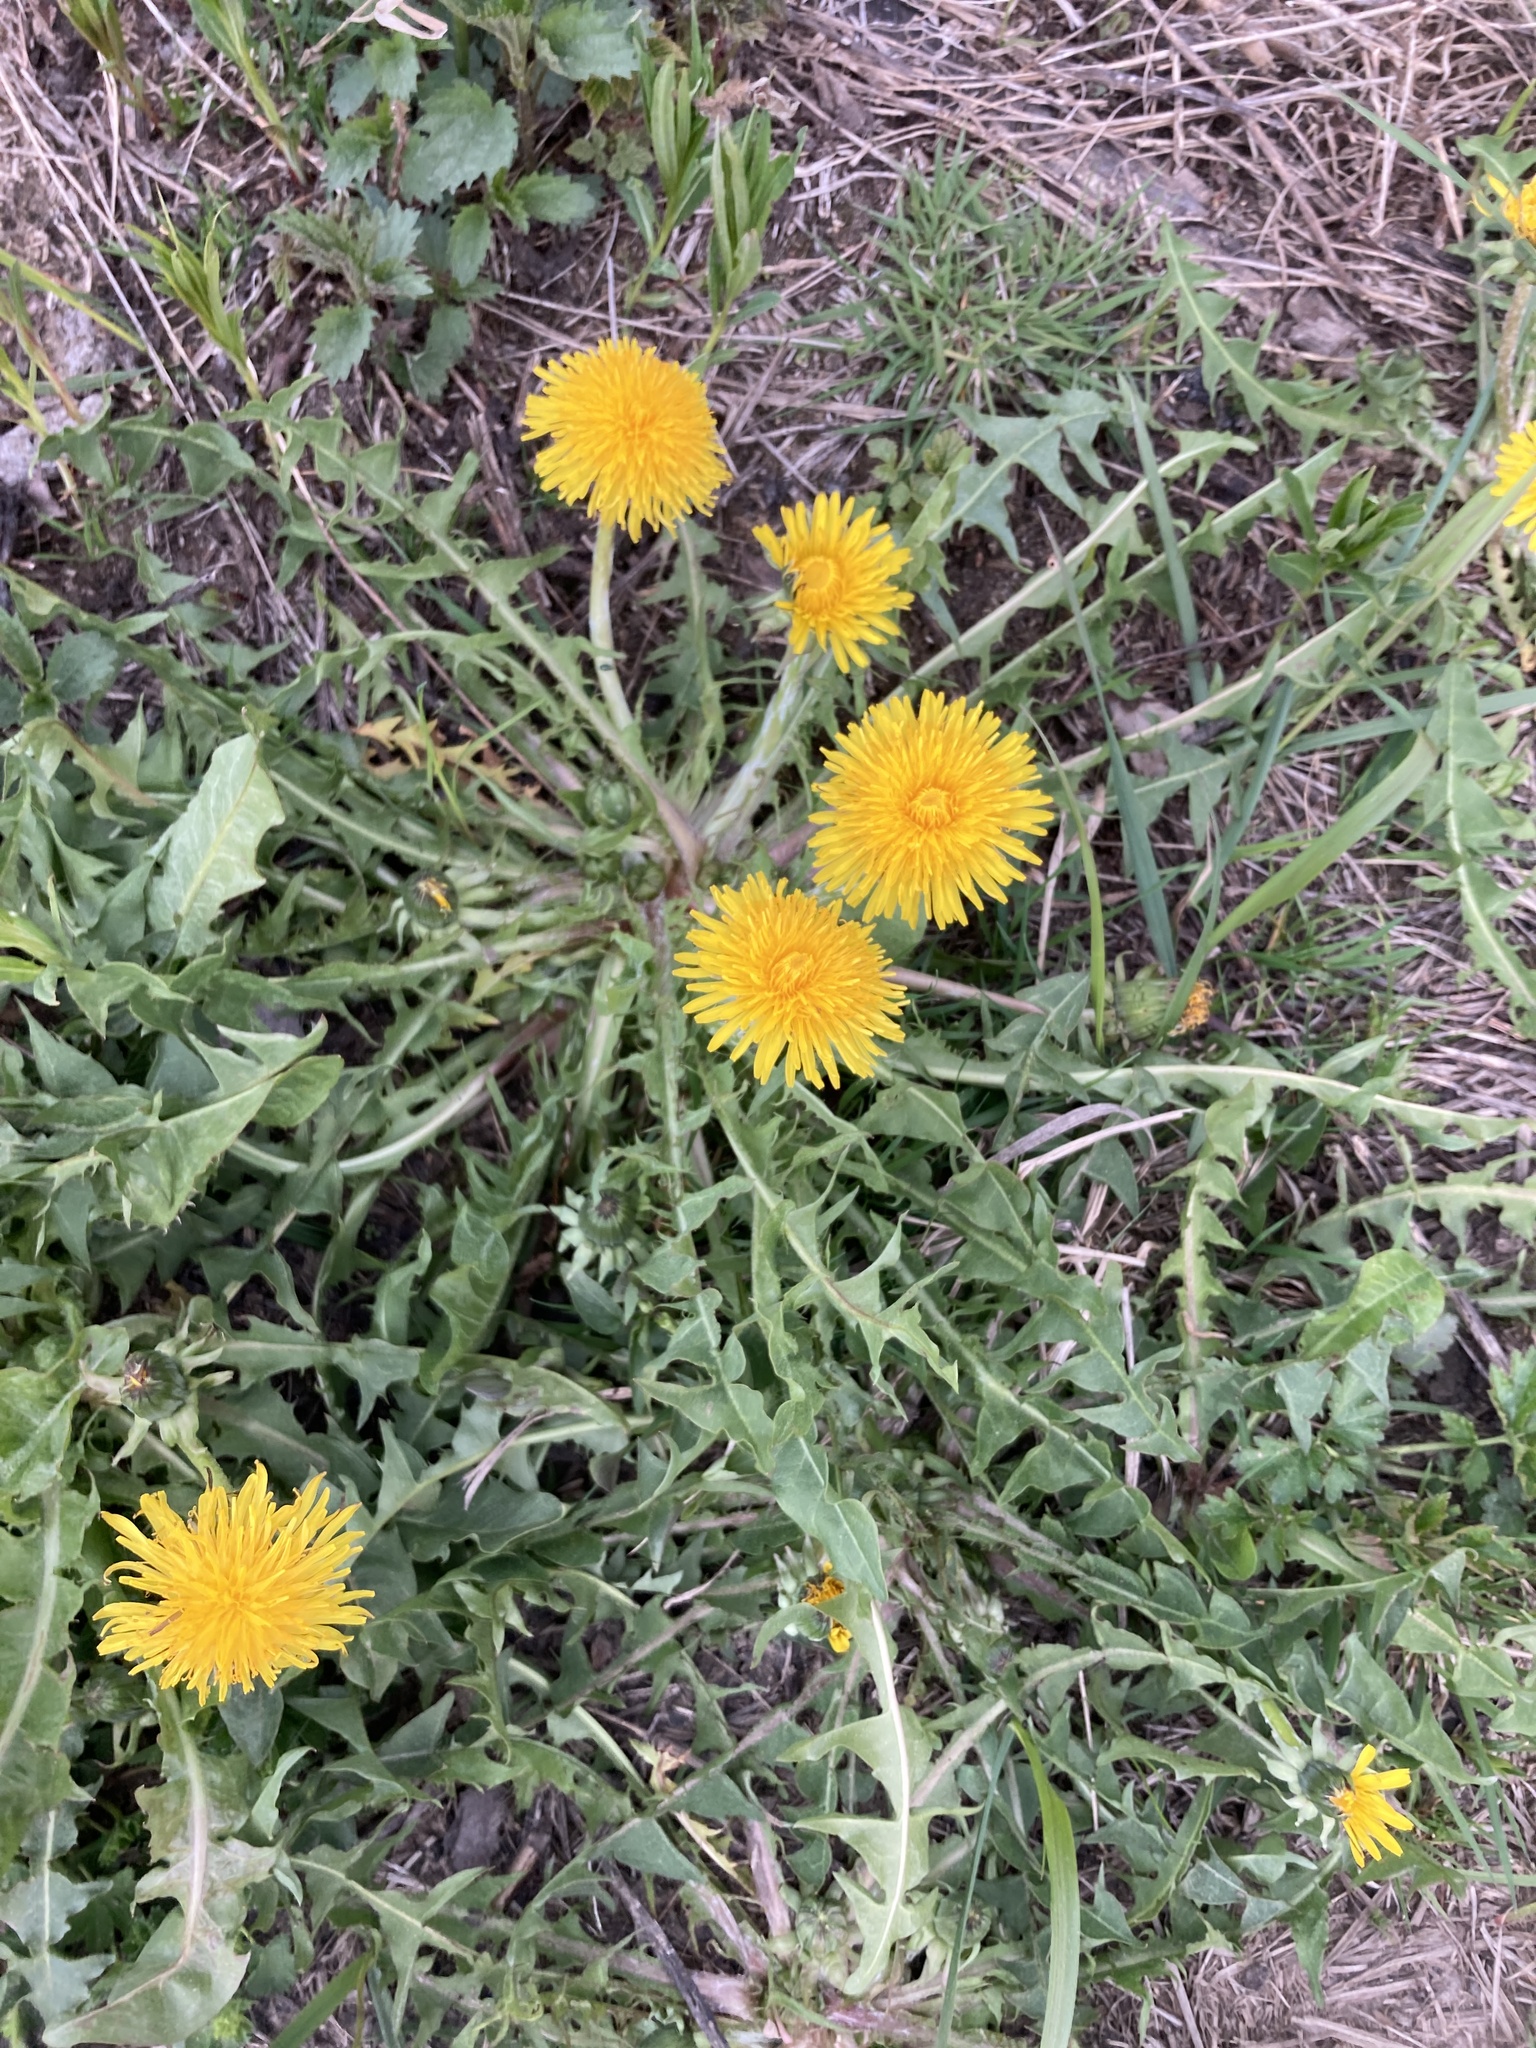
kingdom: Plantae
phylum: Tracheophyta
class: Magnoliopsida
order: Asterales
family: Asteraceae
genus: Taraxacum
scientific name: Taraxacum officinale
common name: Common dandelion
